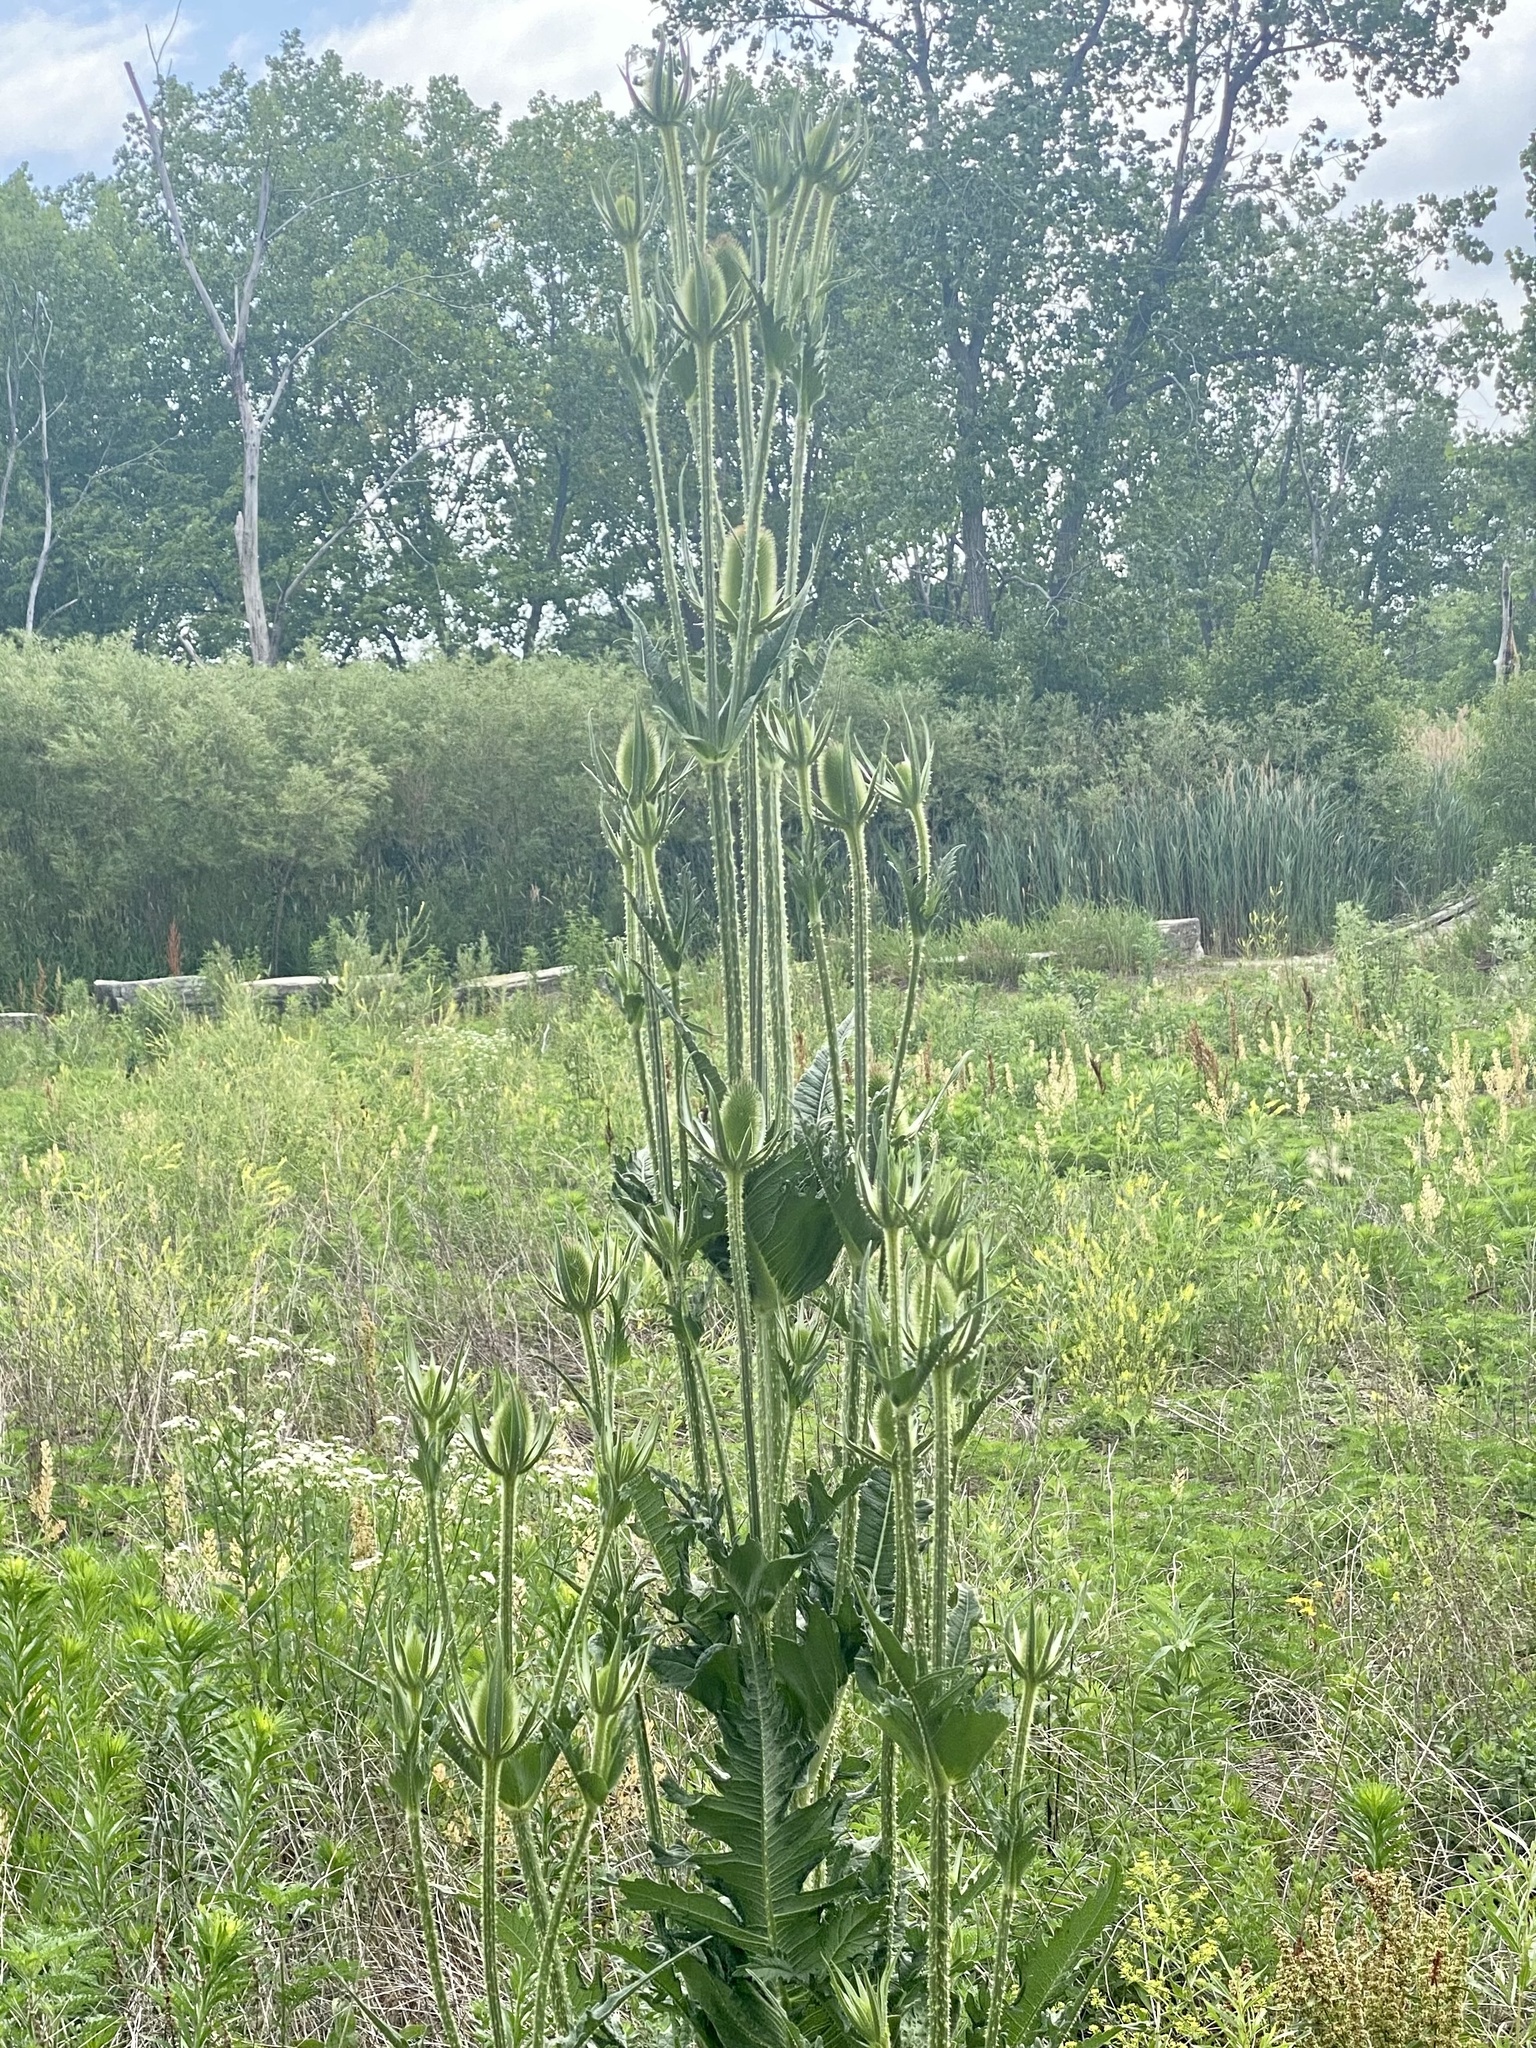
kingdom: Plantae
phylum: Tracheophyta
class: Magnoliopsida
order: Dipsacales
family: Caprifoliaceae
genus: Dipsacus
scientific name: Dipsacus laciniatus
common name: Cut-leaved teasel
